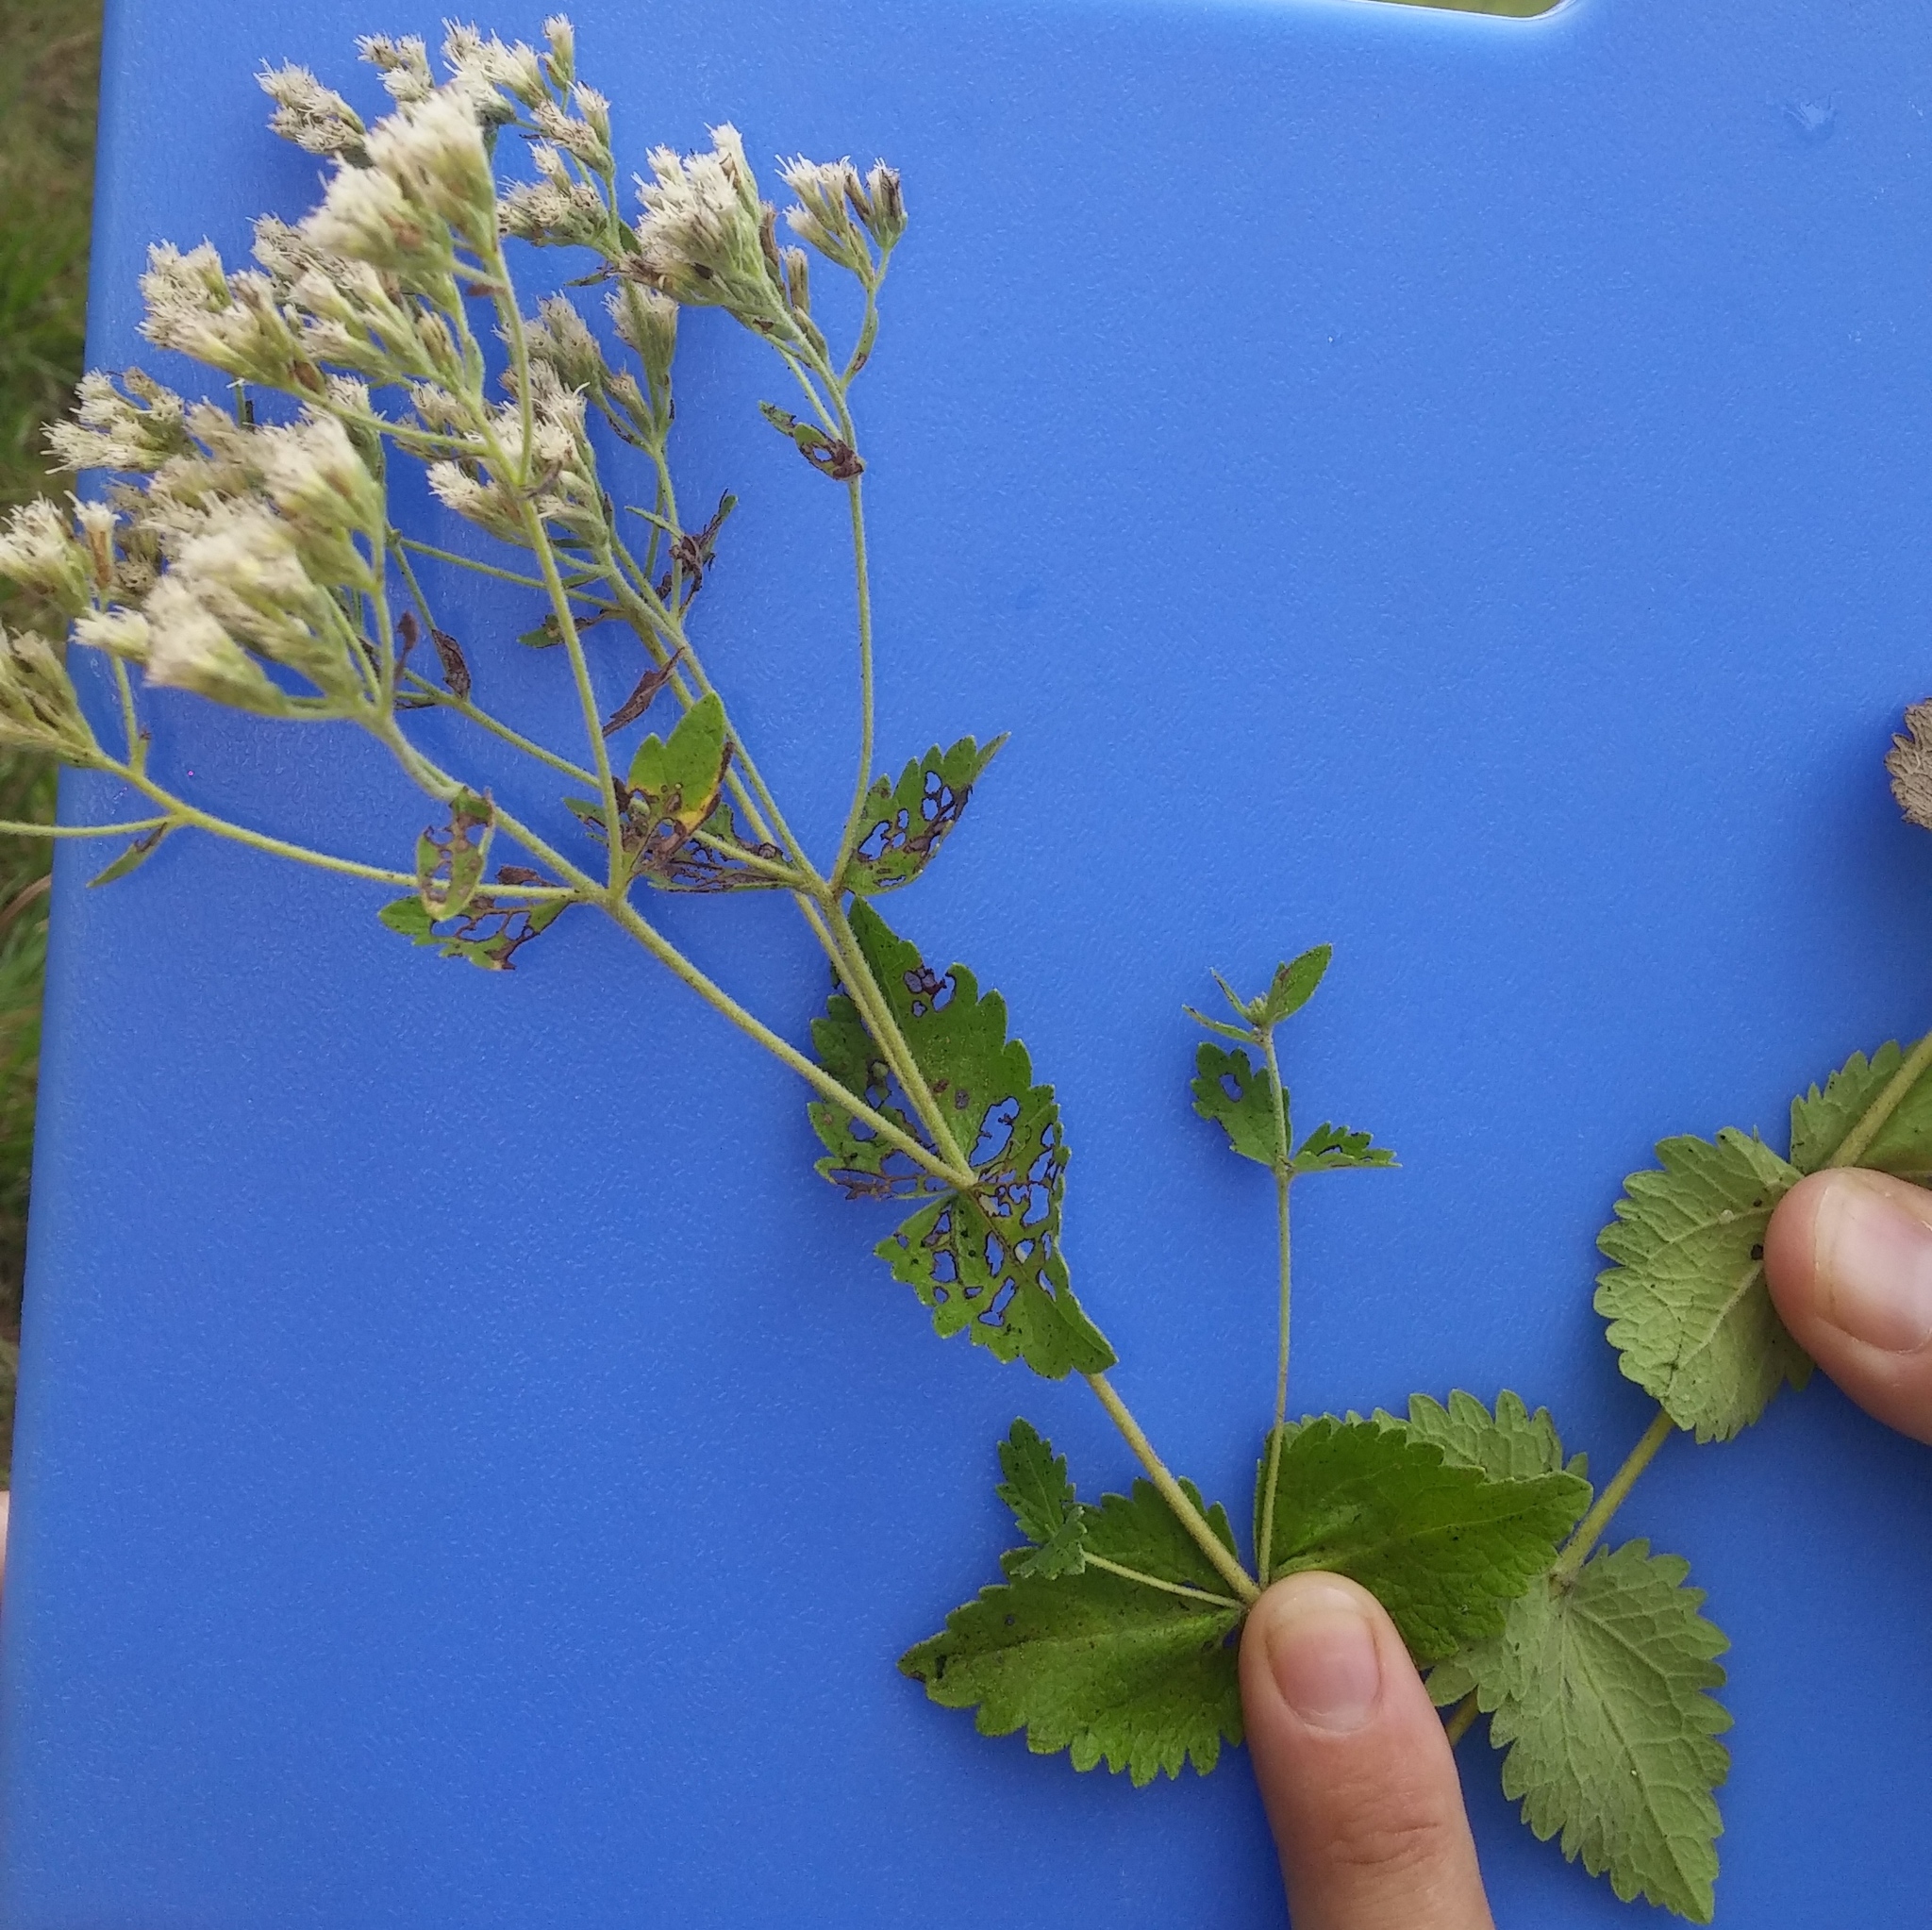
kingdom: Plantae
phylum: Tracheophyta
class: Magnoliopsida
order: Asterales
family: Asteraceae
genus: Eupatorium
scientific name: Eupatorium rotundifolium
